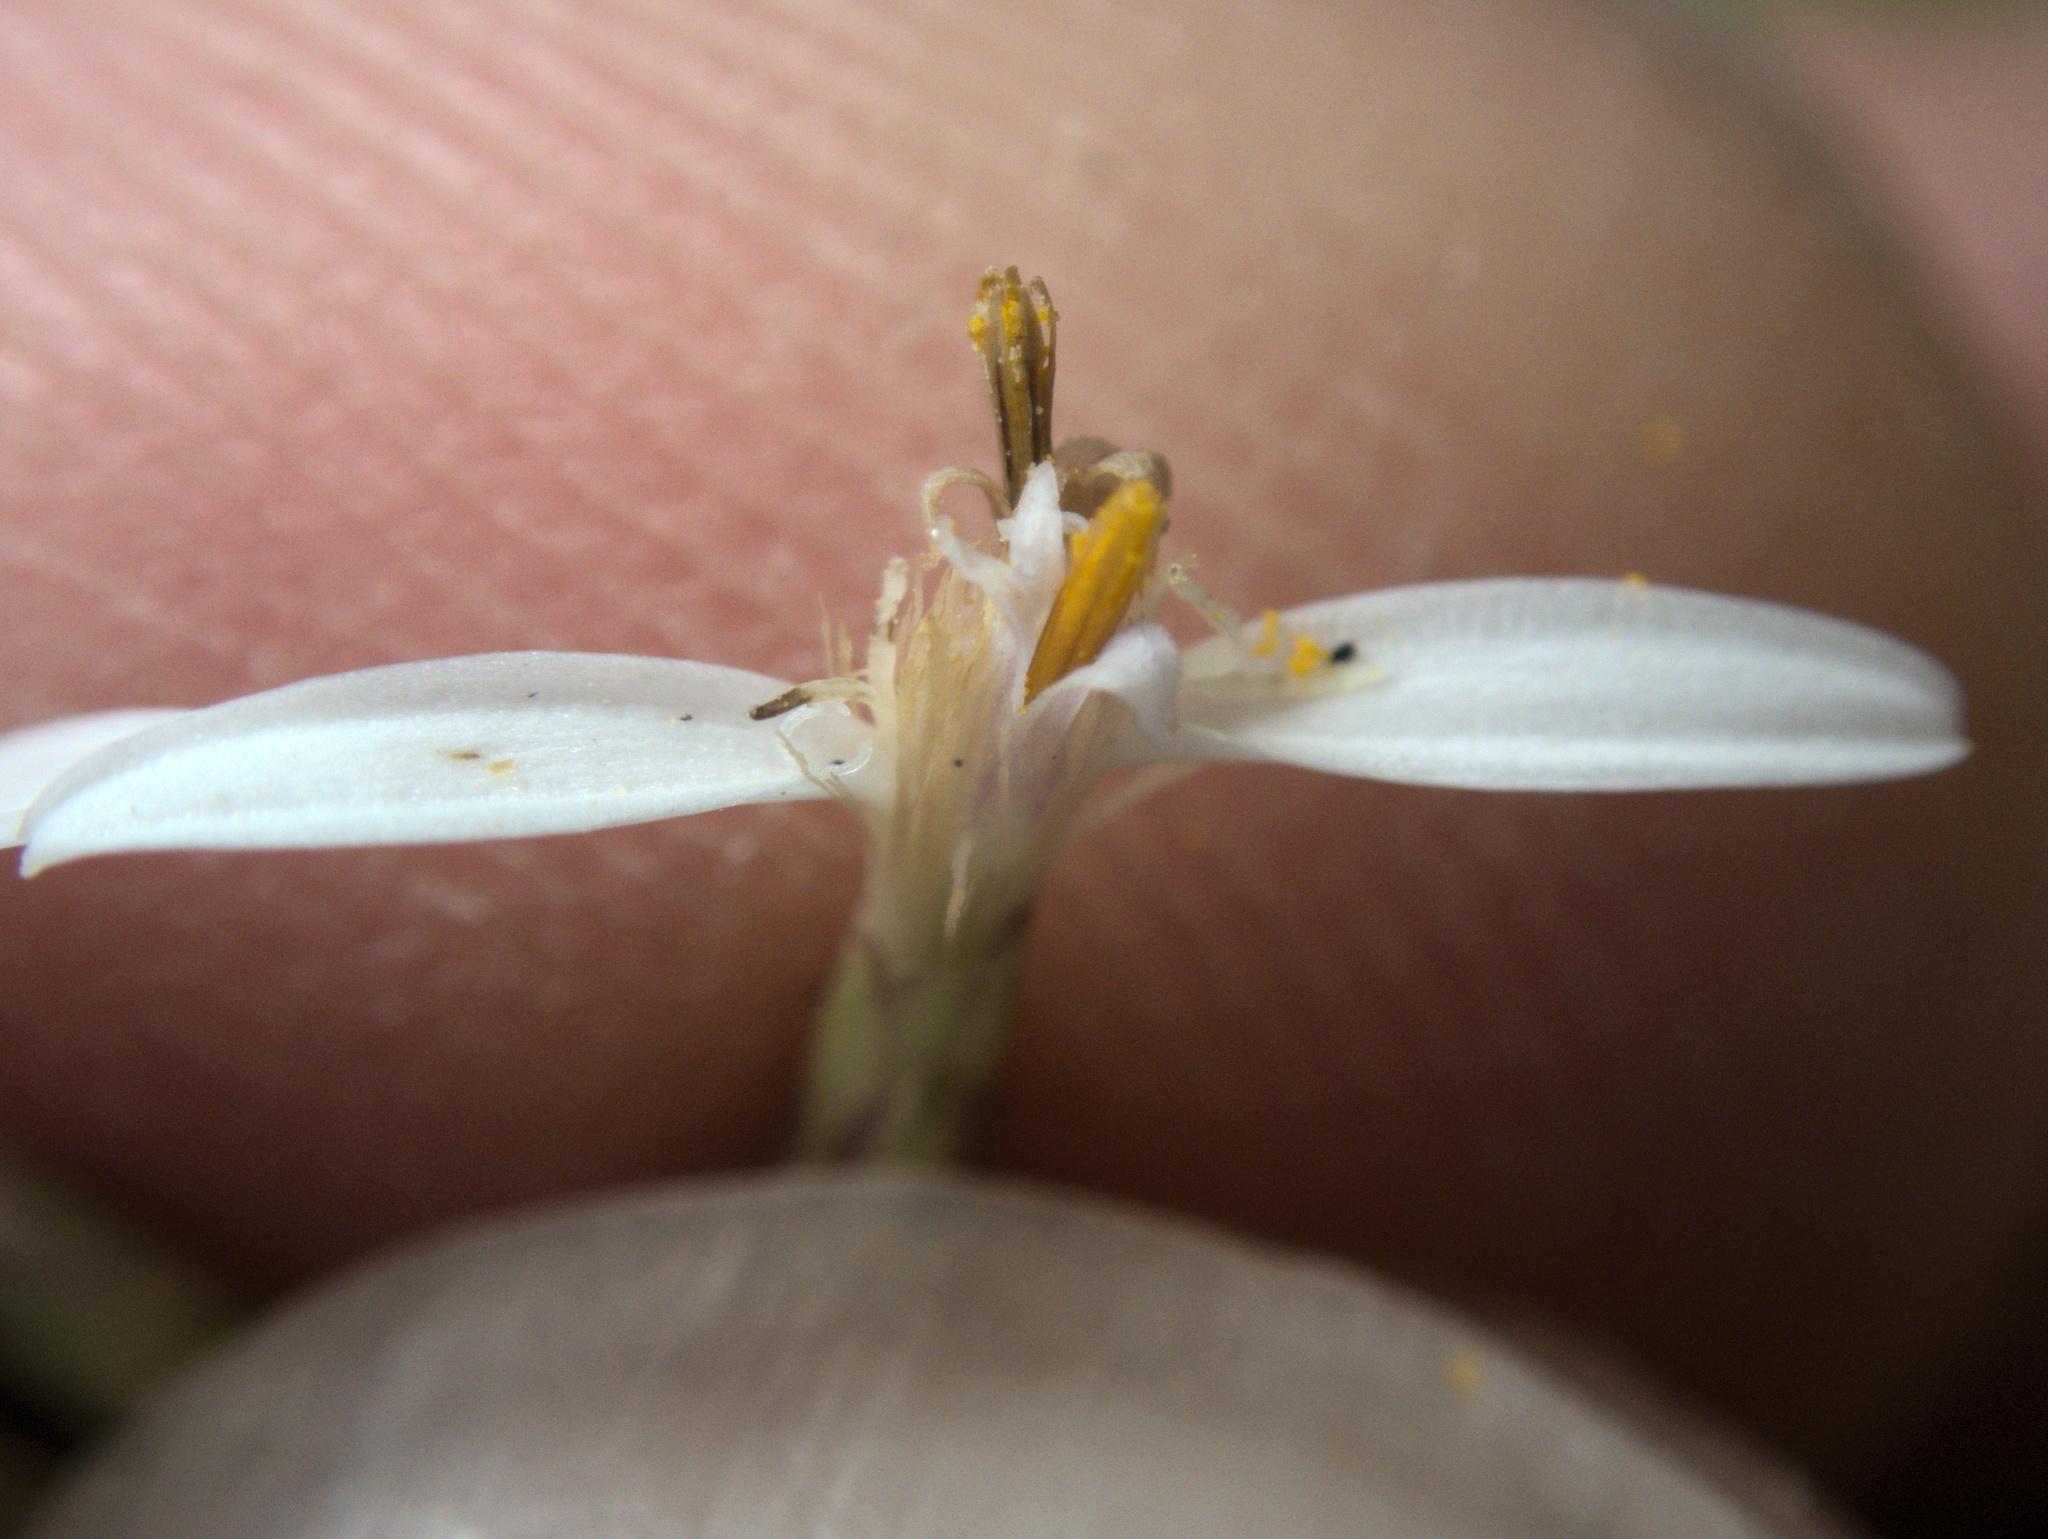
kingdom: Plantae
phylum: Tracheophyta
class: Magnoliopsida
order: Asterales
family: Asteraceae
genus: Olearia
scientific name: Olearia furfuracea
